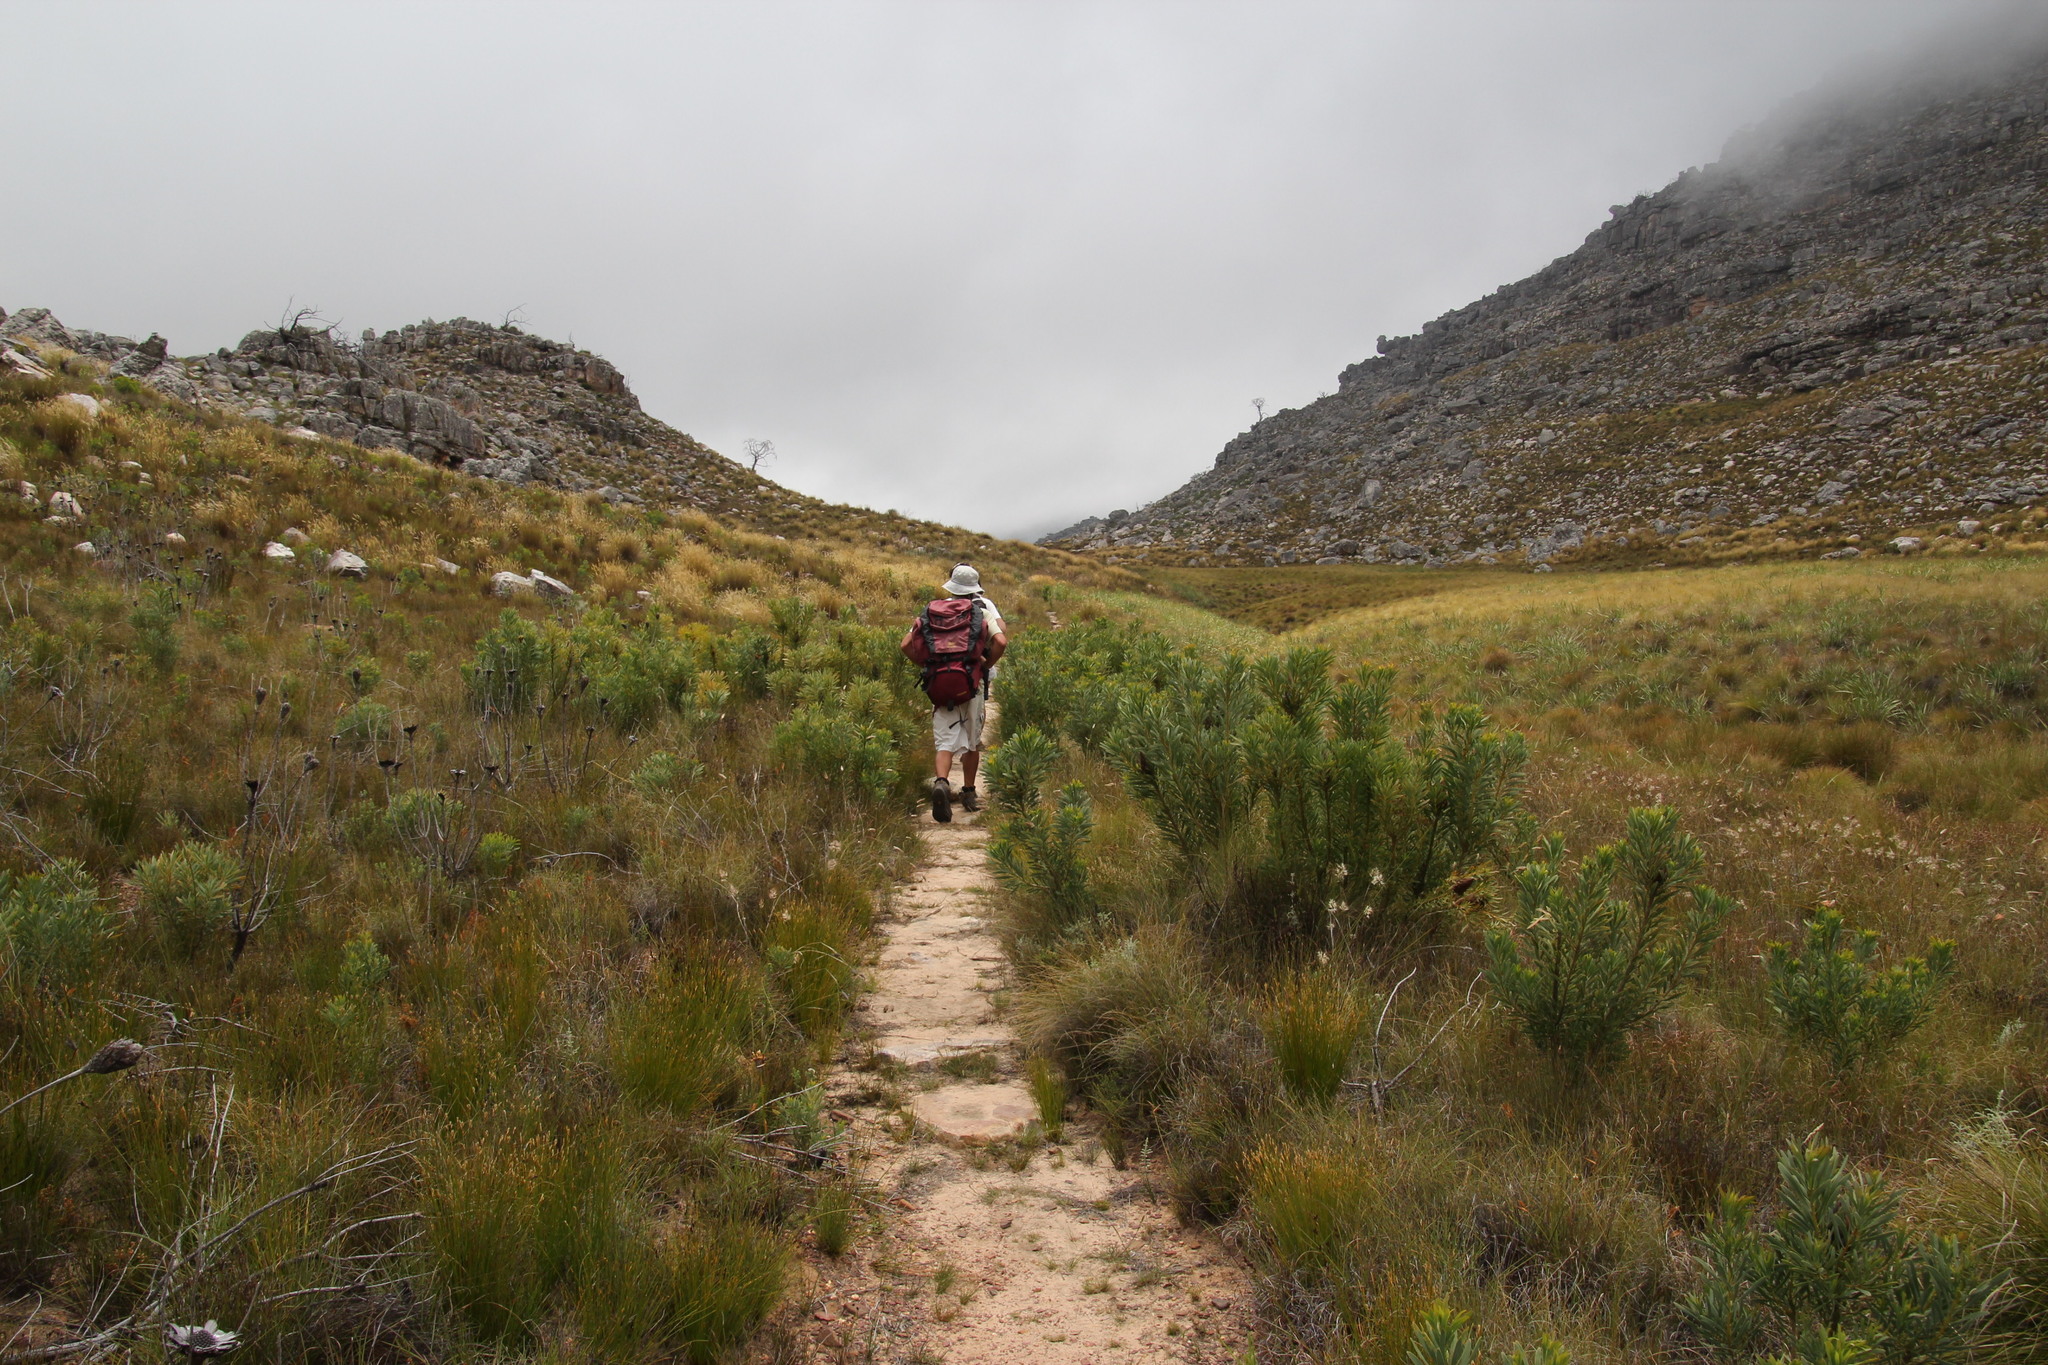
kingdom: Plantae
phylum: Tracheophyta
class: Magnoliopsida
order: Proteales
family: Proteaceae
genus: Protea
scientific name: Protea repens
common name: Sugarbush
